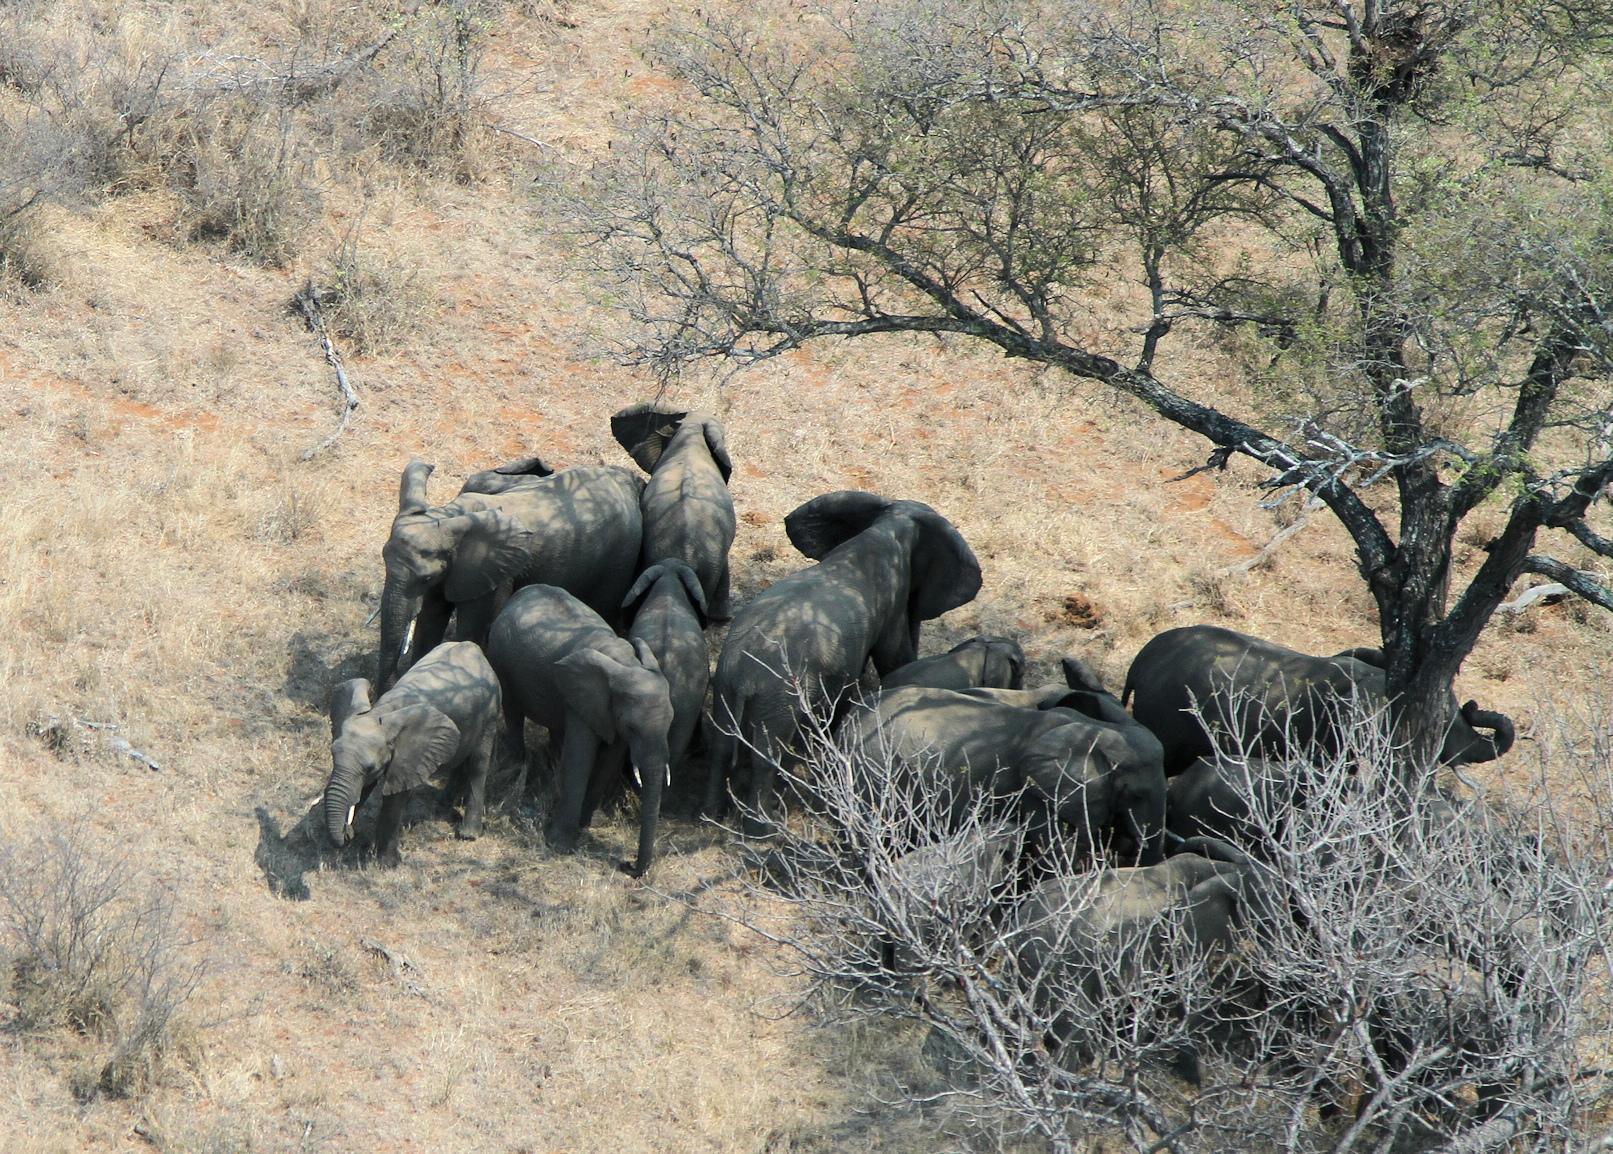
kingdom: Animalia
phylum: Chordata
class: Mammalia
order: Proboscidea
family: Elephantidae
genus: Loxodonta
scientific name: Loxodonta africana
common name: African elephant
